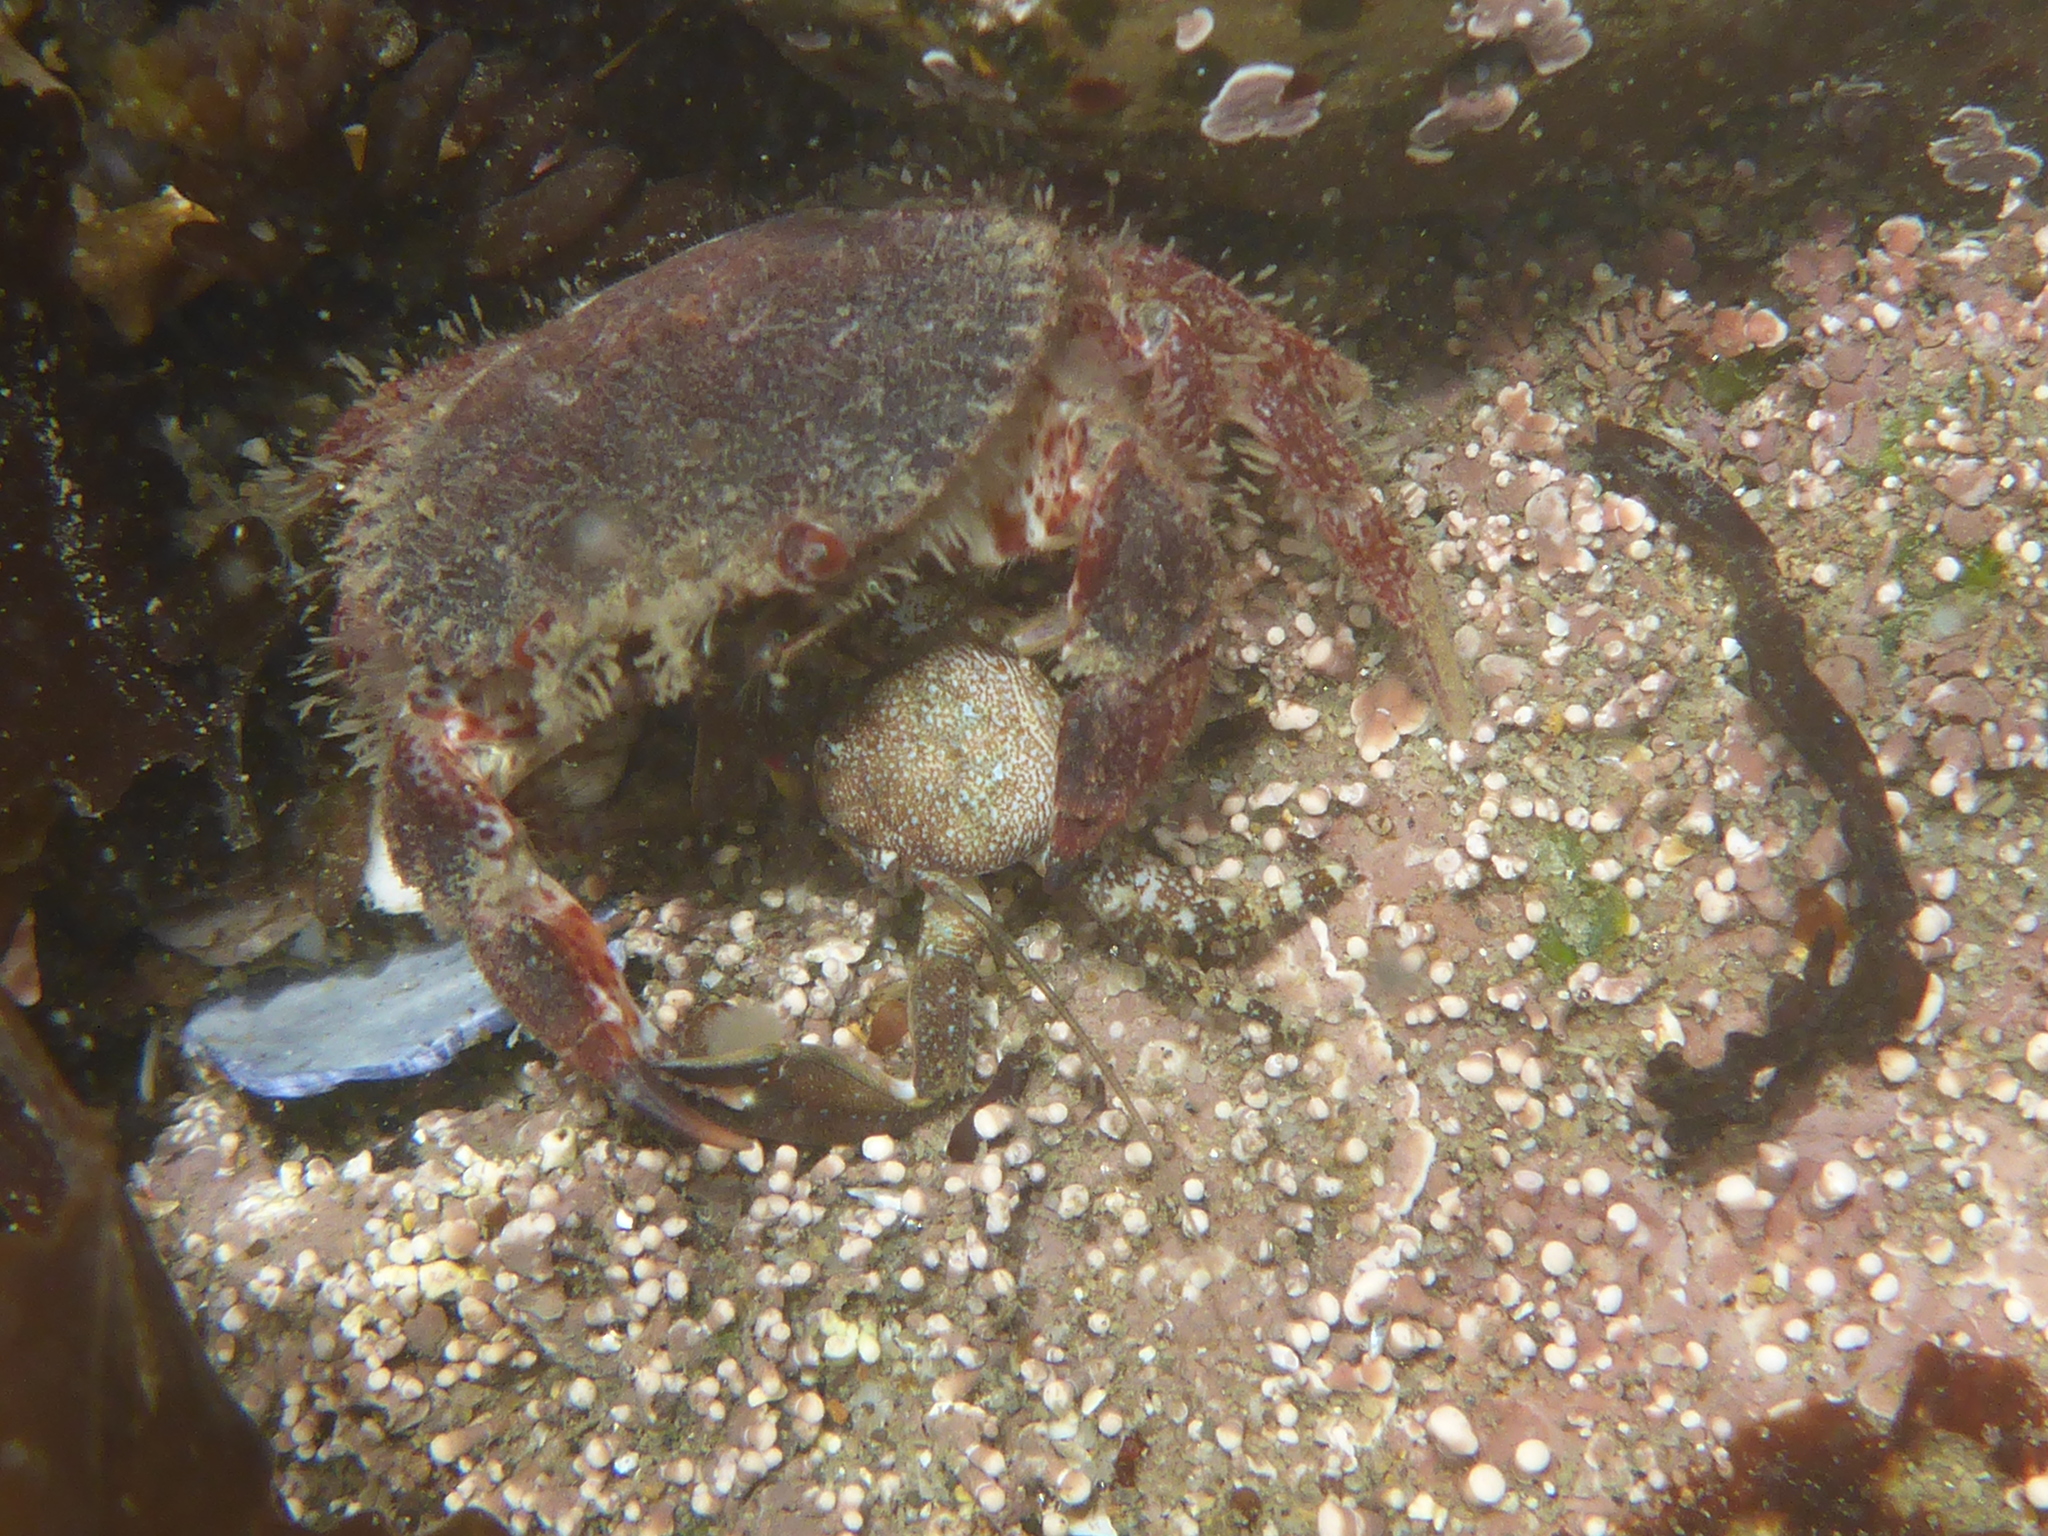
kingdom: Animalia
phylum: Arthropoda
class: Malacostraca
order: Decapoda
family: Cancridae
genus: Romaleon
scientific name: Romaleon antennarium
